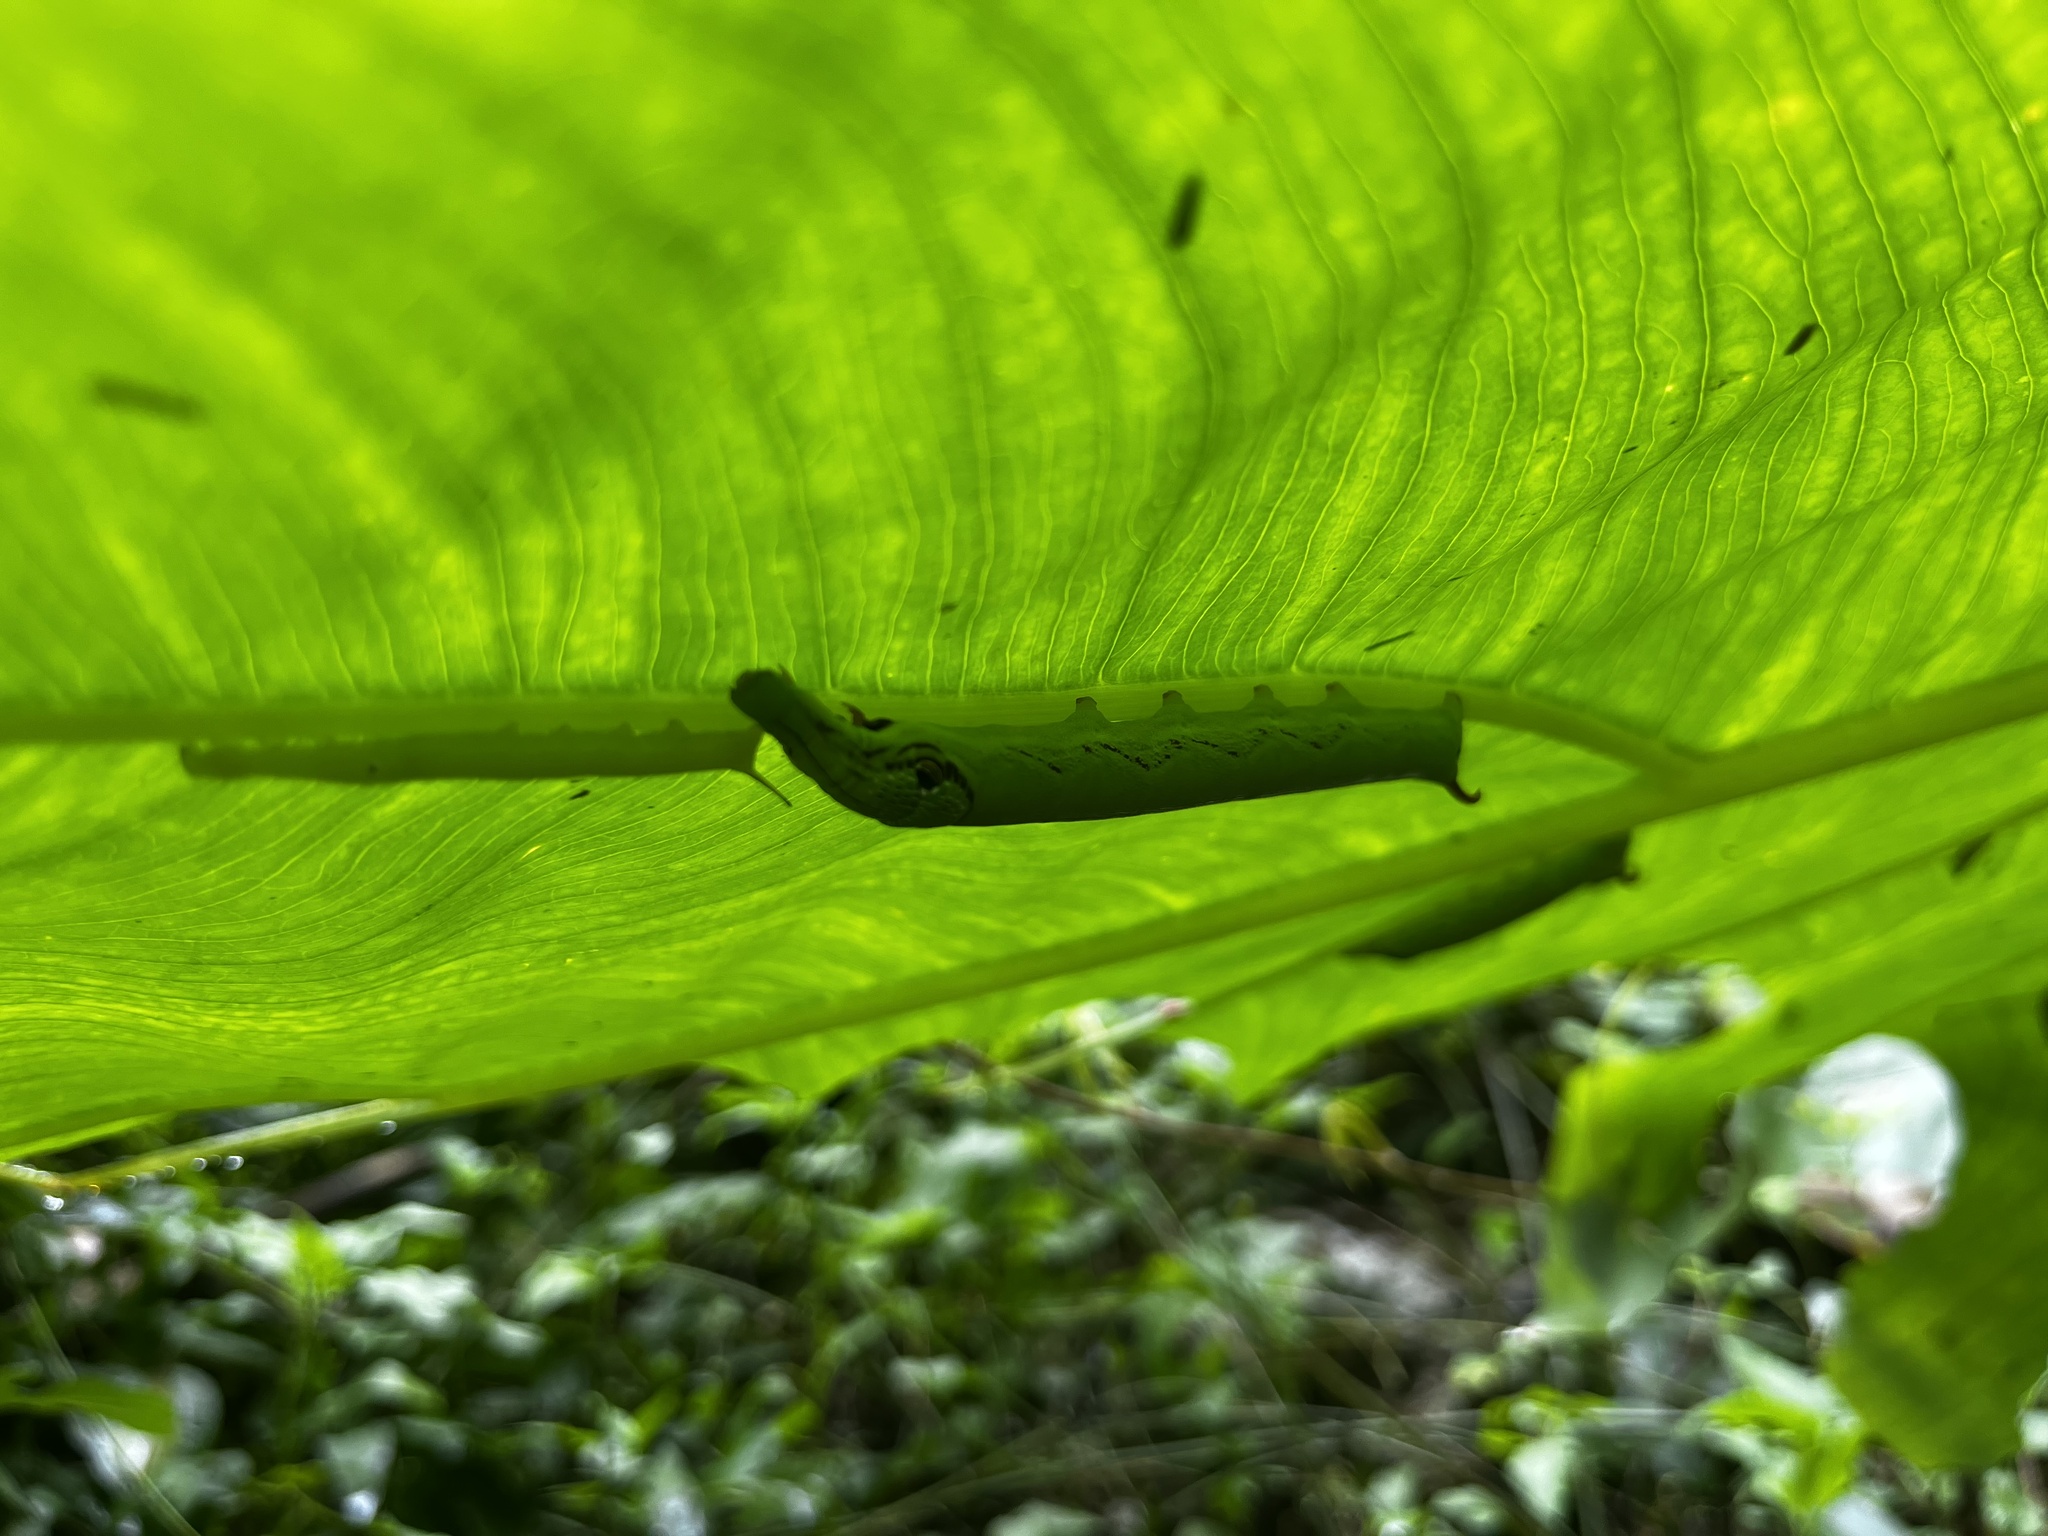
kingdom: Animalia
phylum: Arthropoda
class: Insecta
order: Lepidoptera
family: Sphingidae
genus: Eupanacra
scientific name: Eupanacra mydon
